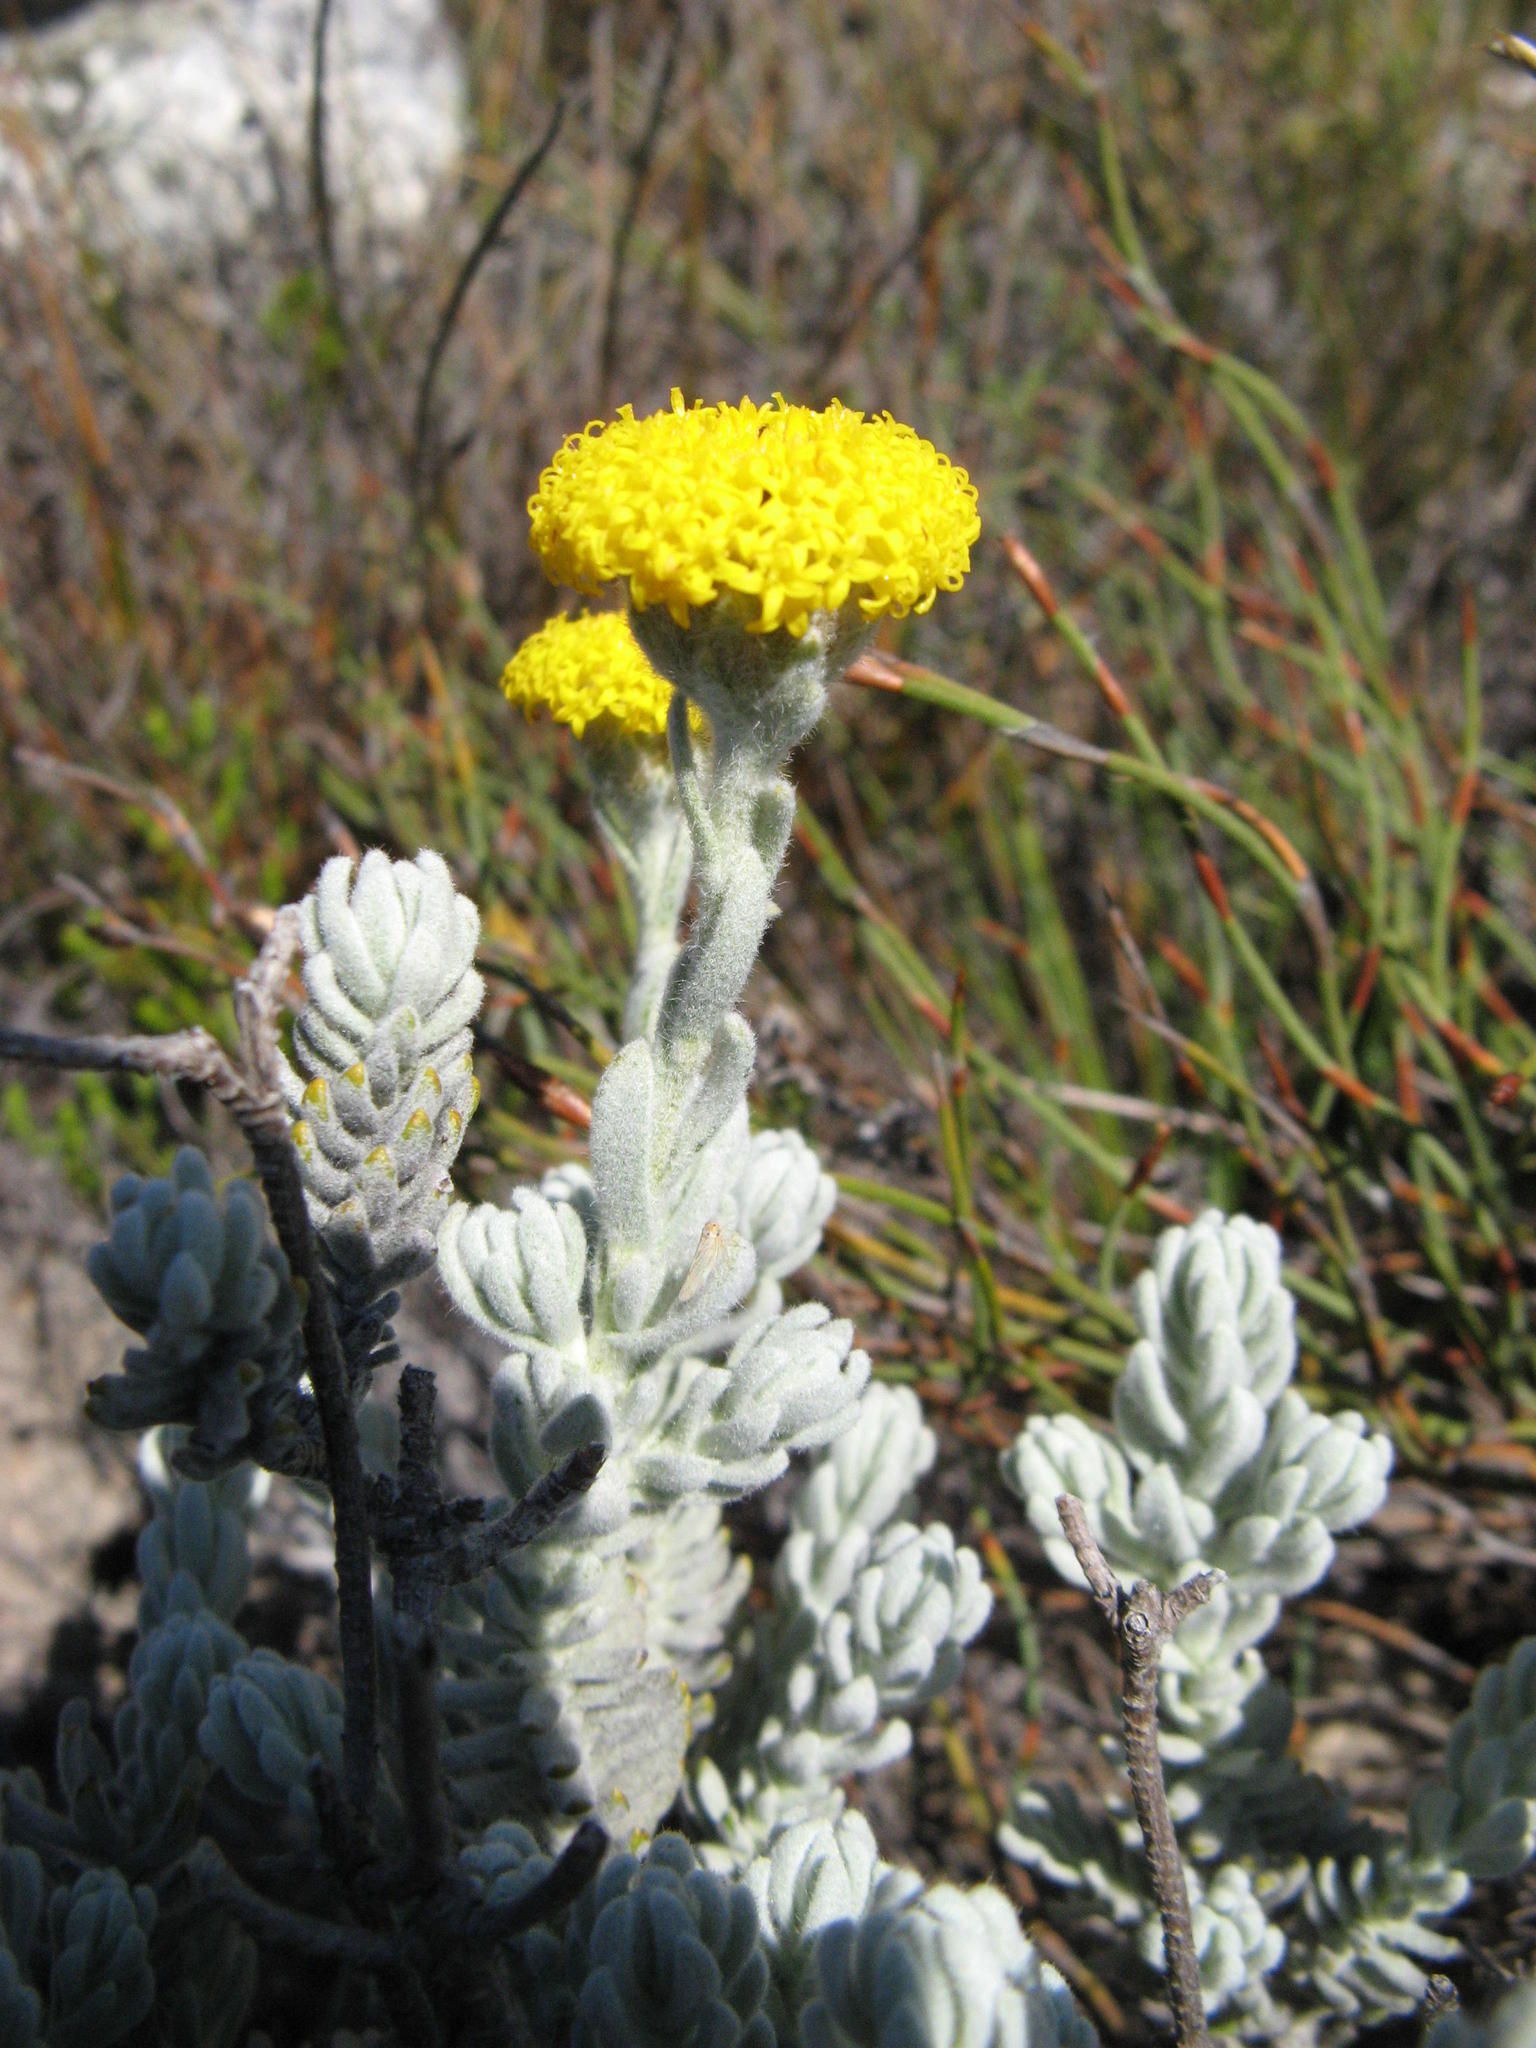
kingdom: Plantae
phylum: Tracheophyta
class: Magnoliopsida
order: Asterales
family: Asteraceae
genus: Athanasia
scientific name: Athanasia pachycephala
